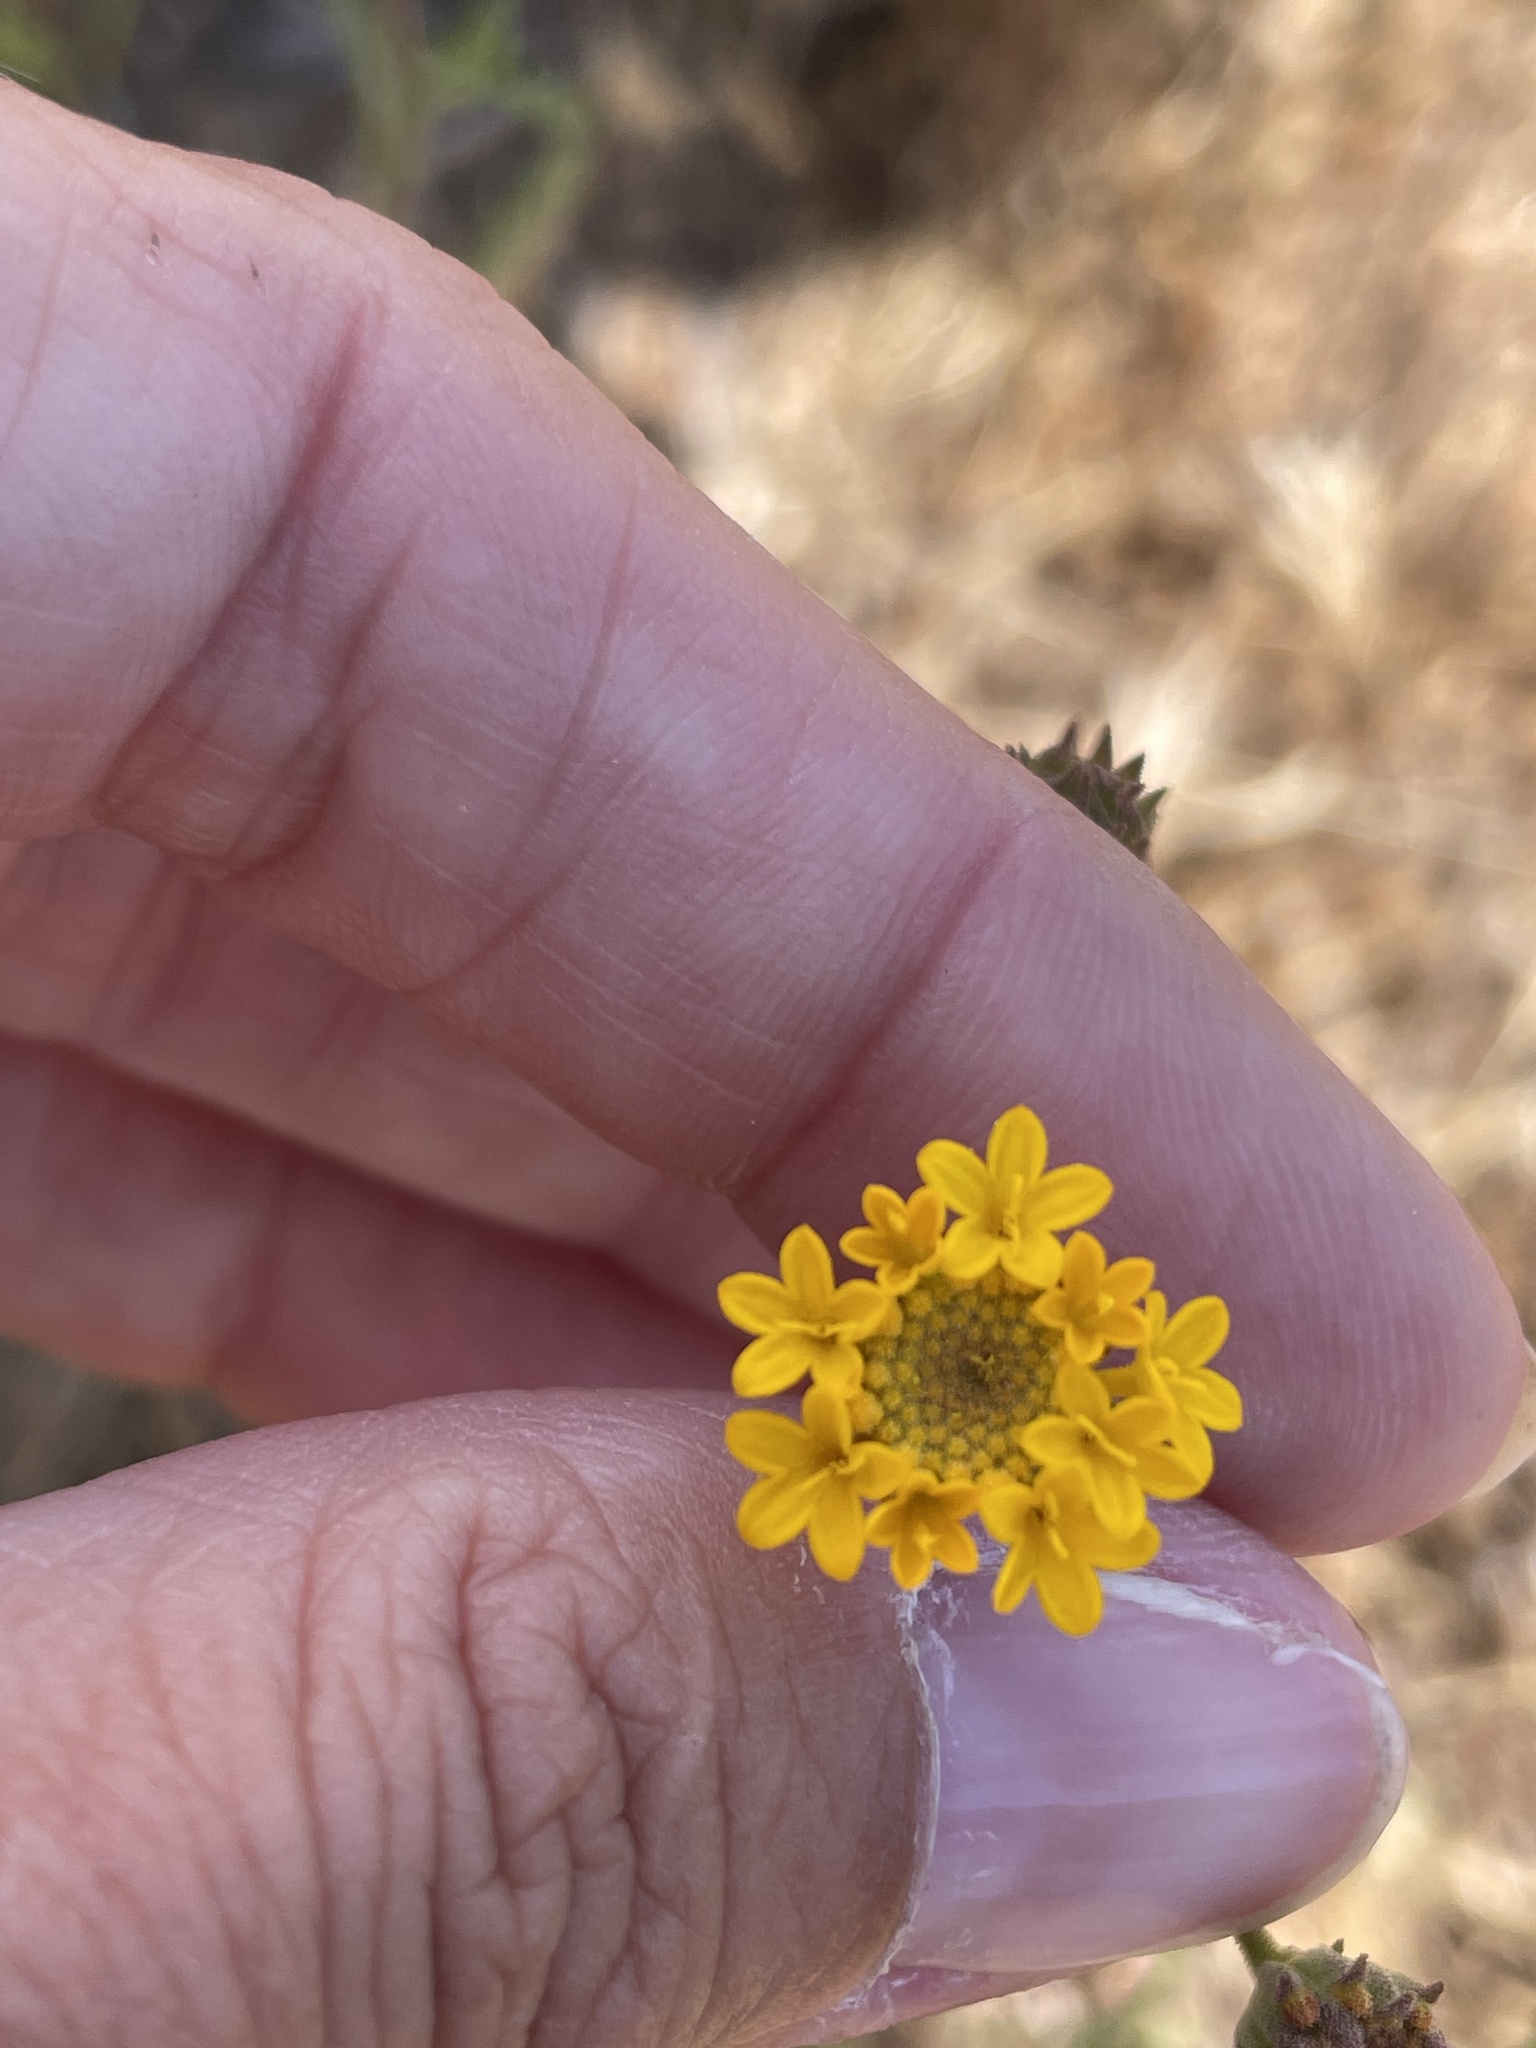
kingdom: Plantae
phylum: Tracheophyta
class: Magnoliopsida
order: Asterales
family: Asteraceae
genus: Chaenactis
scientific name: Chaenactis glabriuscula
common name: Yellow pincushion
